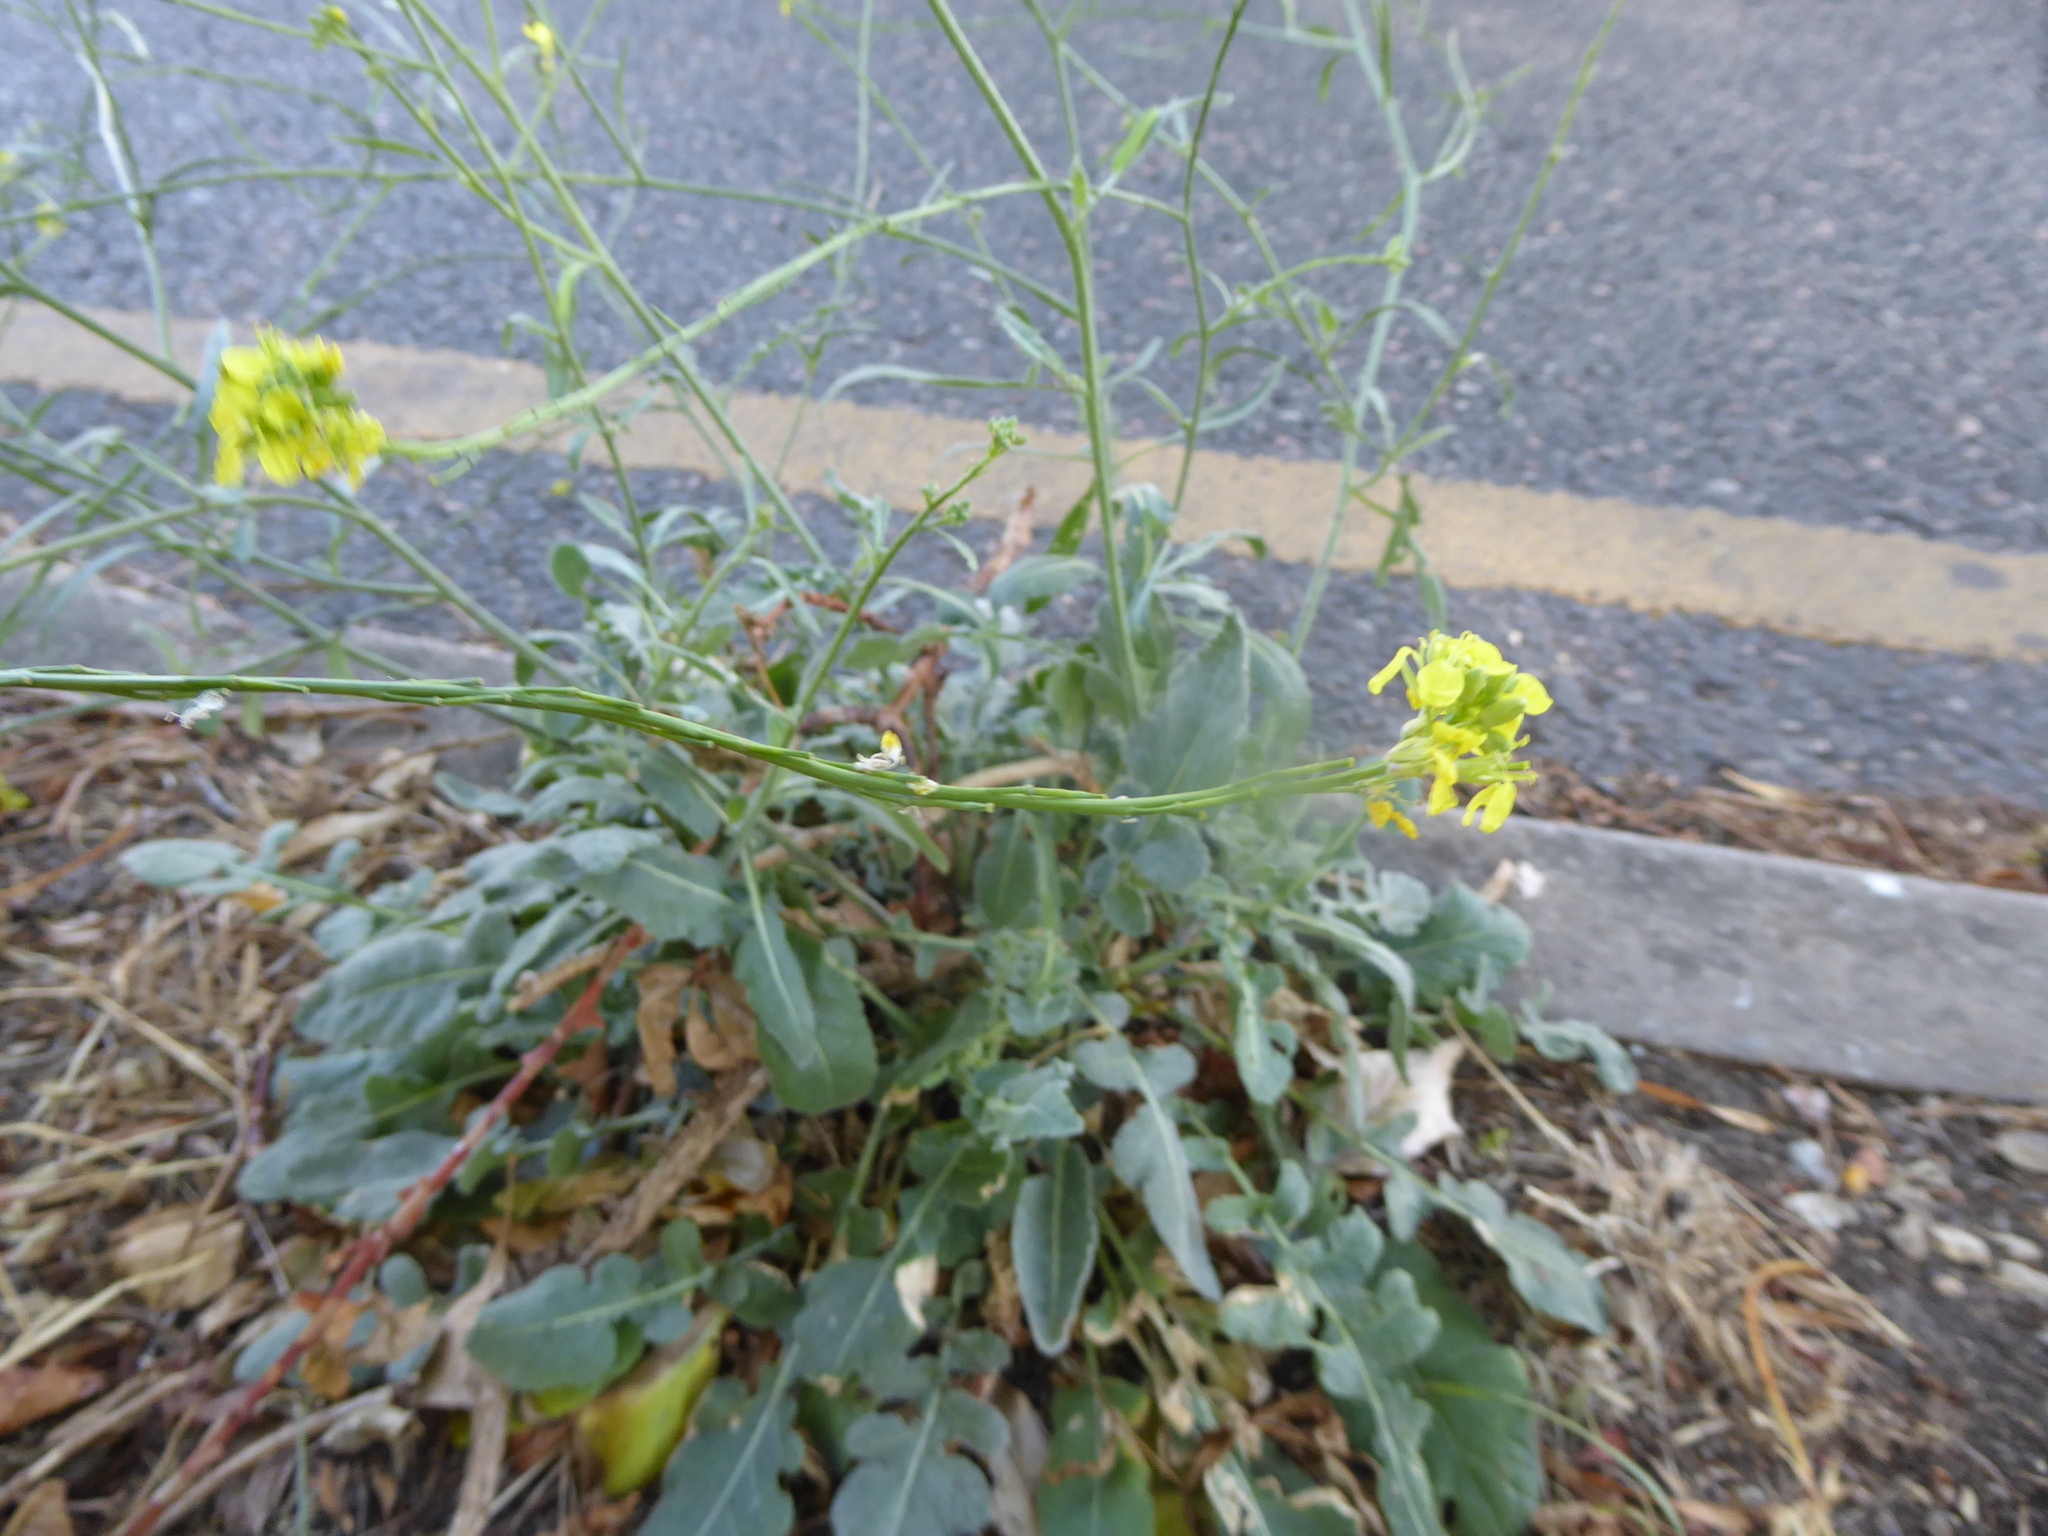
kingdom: Plantae
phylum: Tracheophyta
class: Magnoliopsida
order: Brassicales
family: Brassicaceae
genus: Hirschfeldia
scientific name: Hirschfeldia incana
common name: Hoary mustard
